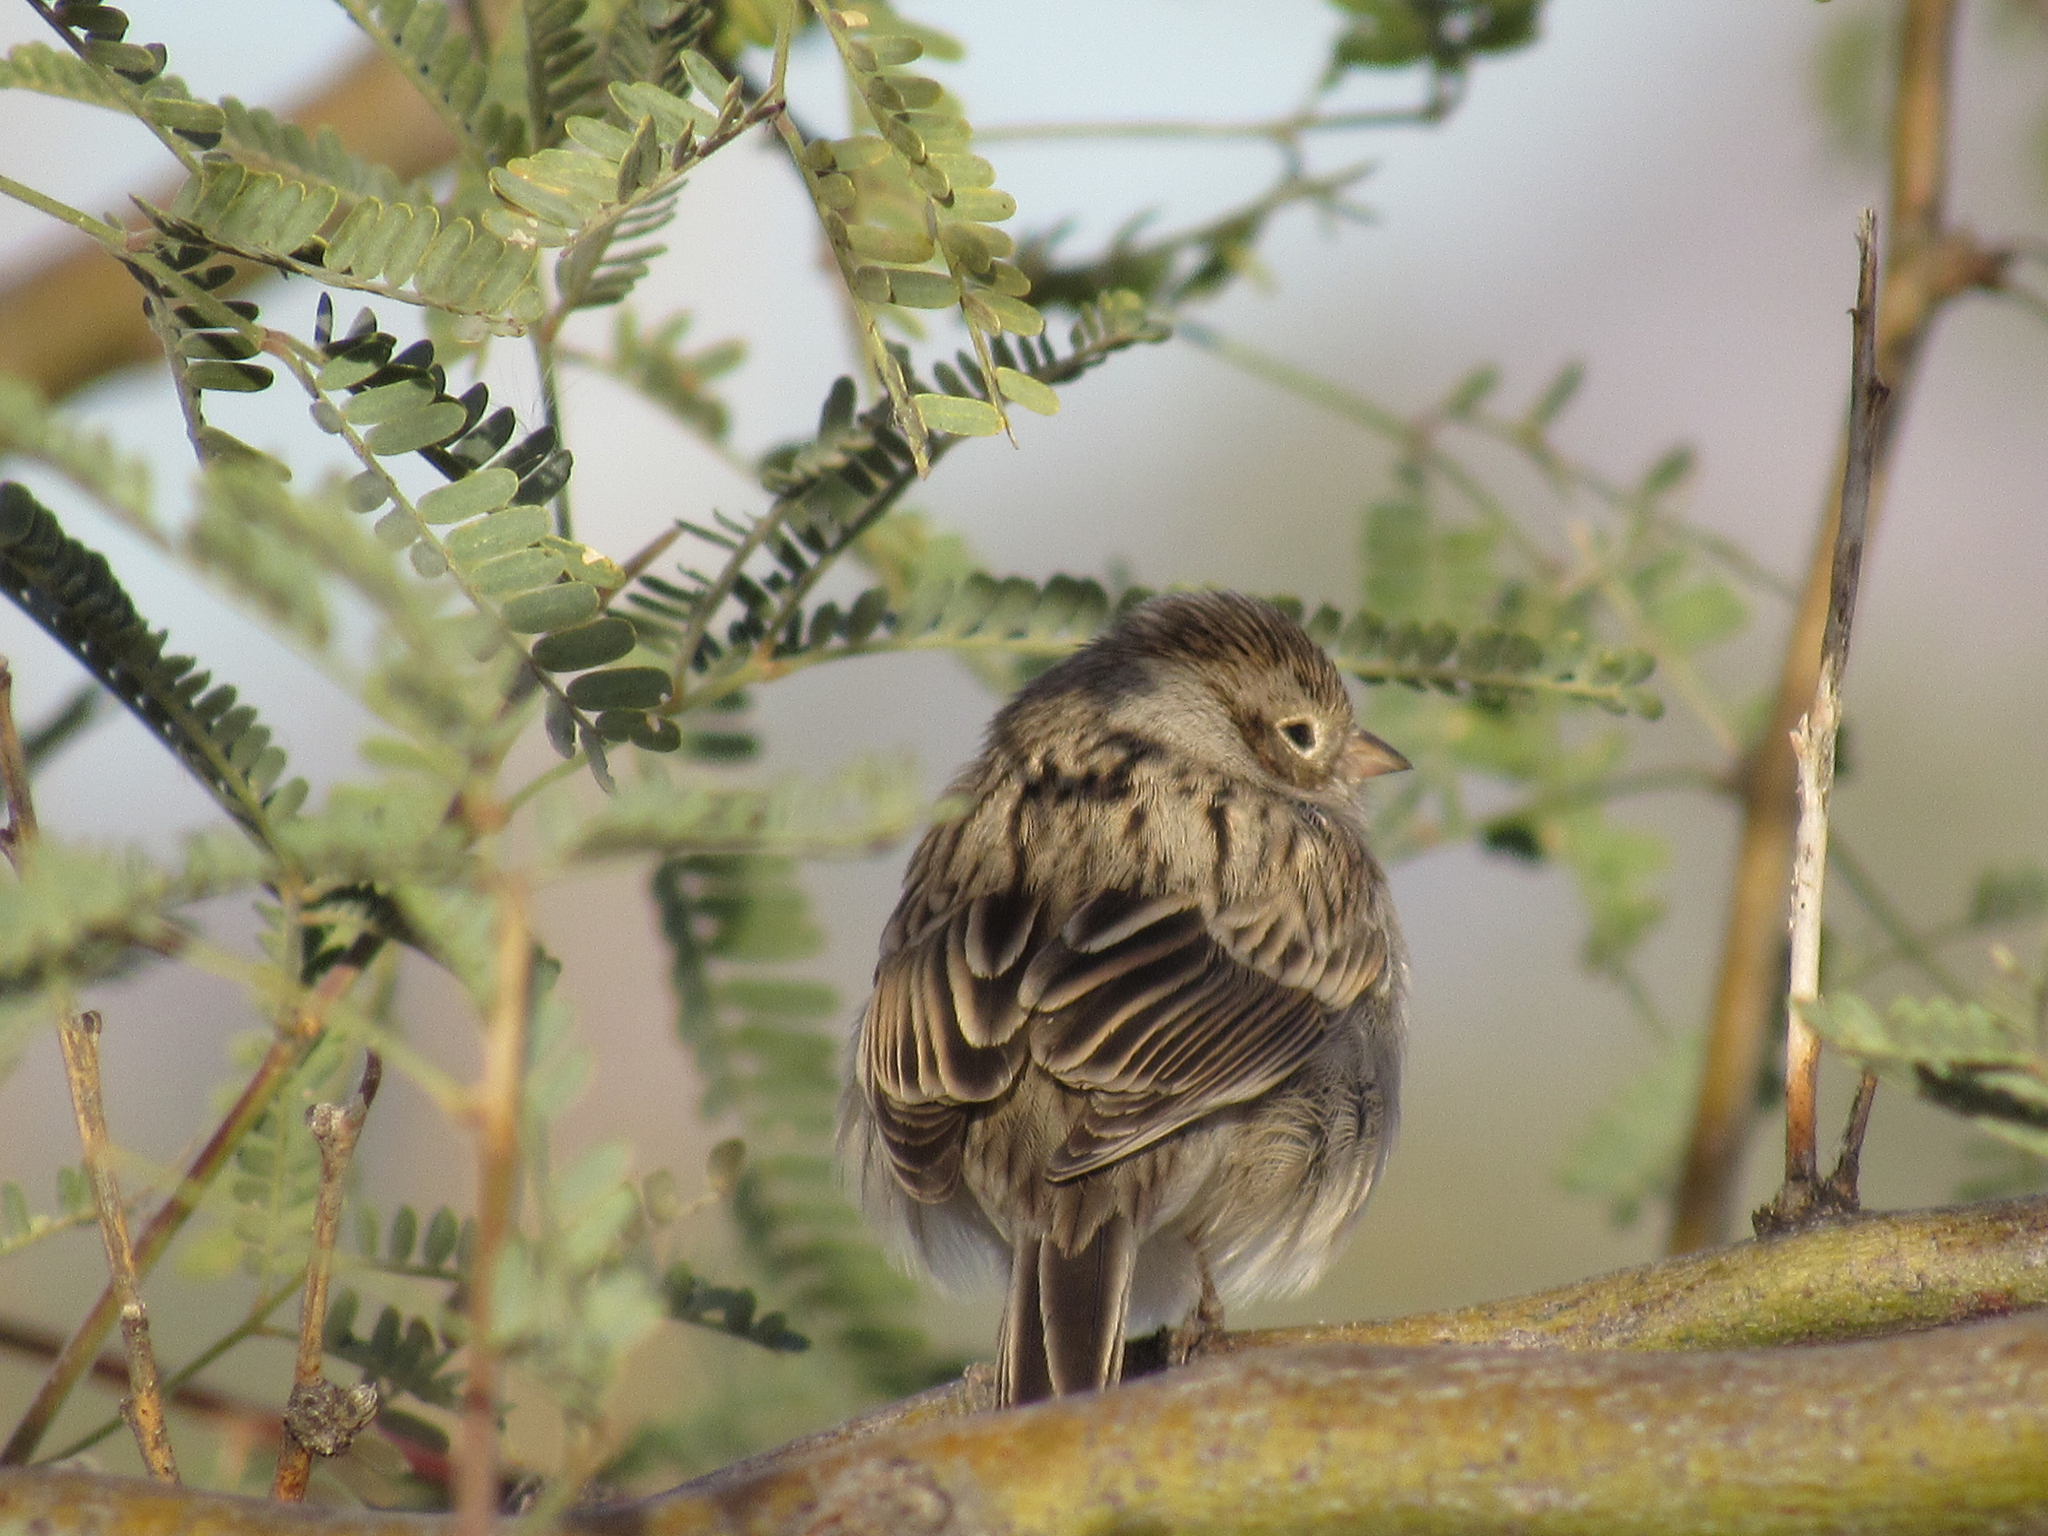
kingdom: Animalia
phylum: Chordata
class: Aves
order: Passeriformes
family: Passerellidae
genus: Pooecetes
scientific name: Pooecetes gramineus
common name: Vesper sparrow
